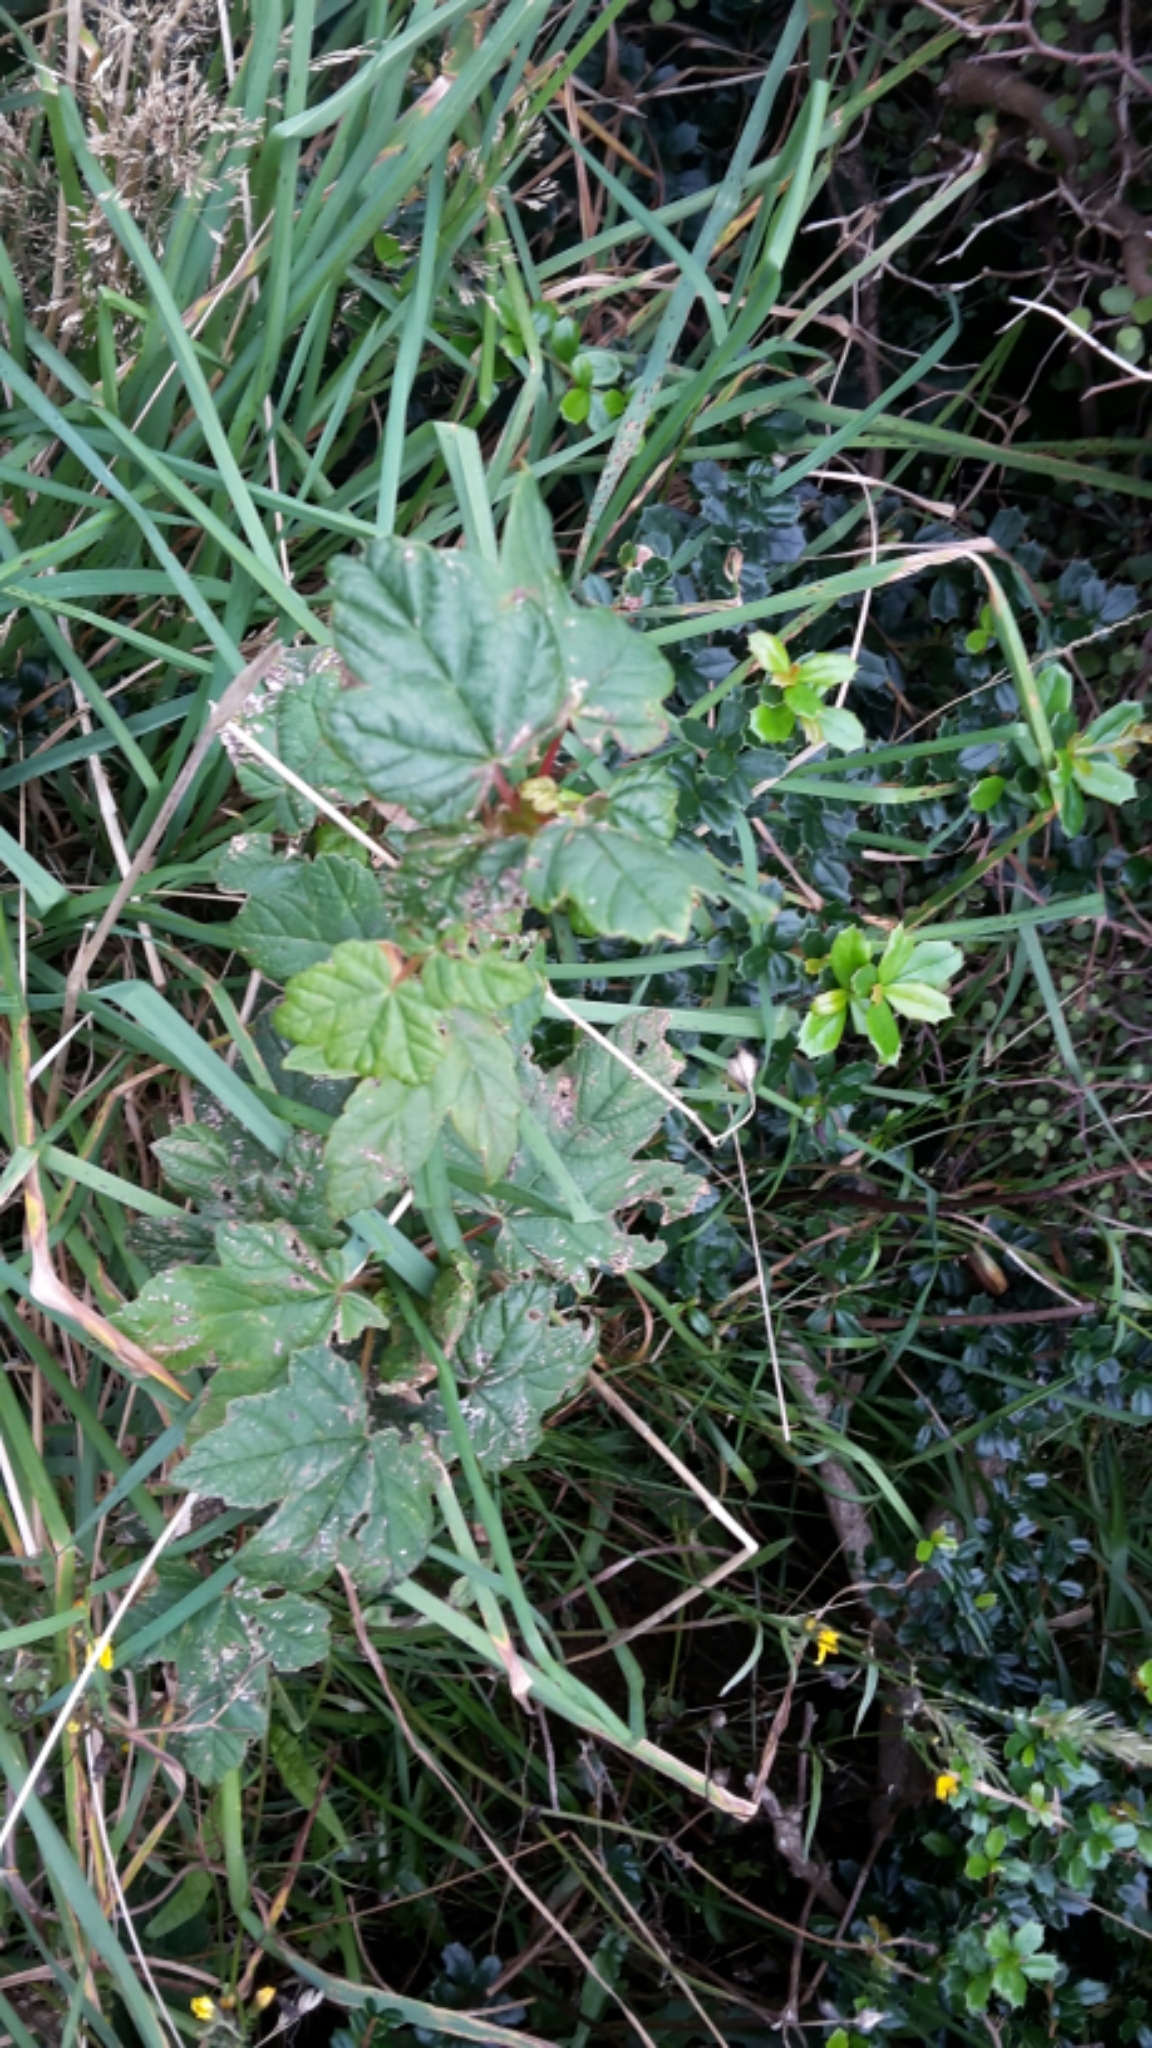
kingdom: Plantae
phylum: Tracheophyta
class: Magnoliopsida
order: Sapindales
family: Sapindaceae
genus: Acer
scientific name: Acer pseudoplatanus
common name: Sycamore
